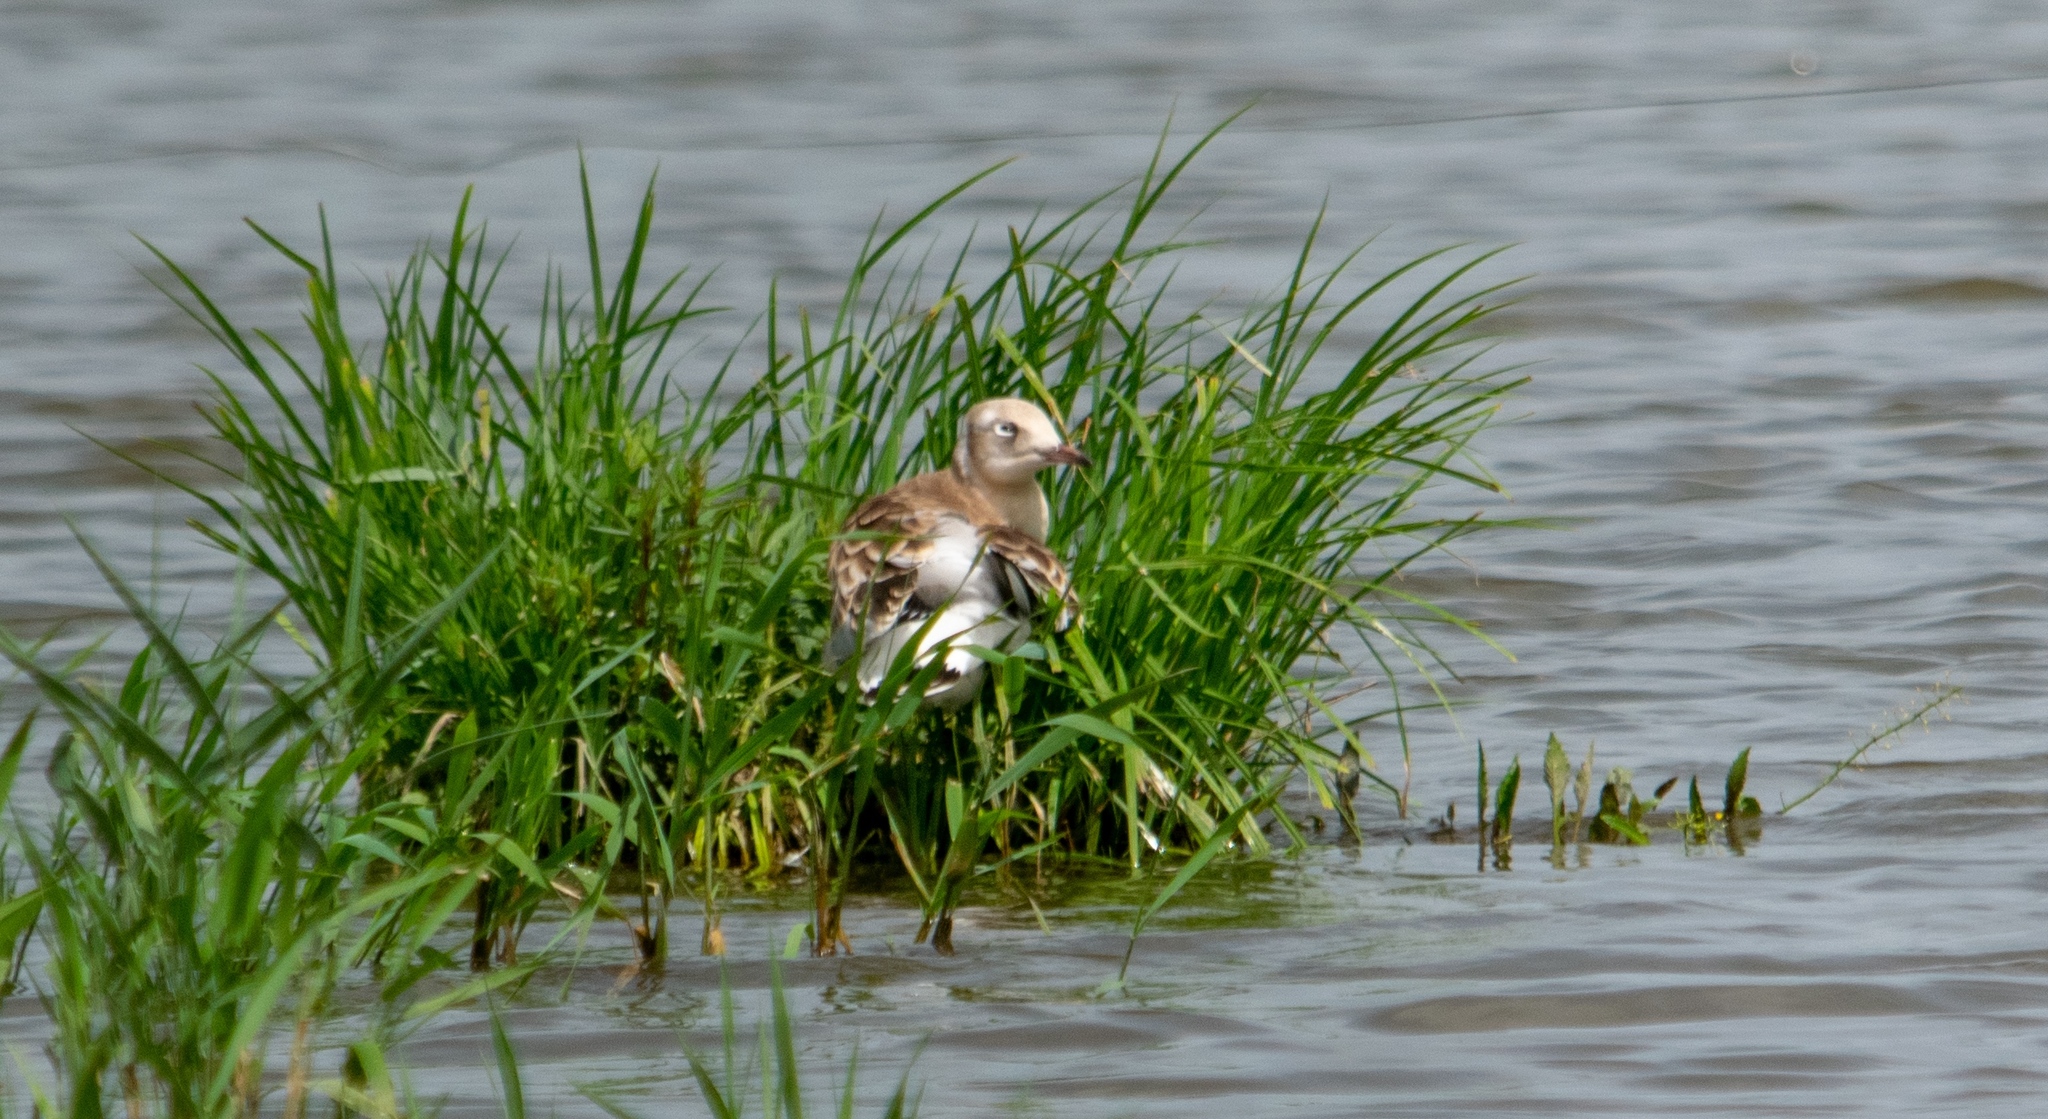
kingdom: Animalia
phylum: Chordata
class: Aves
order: Charadriiformes
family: Laridae
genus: Chroicocephalus
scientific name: Chroicocephalus ridibundus
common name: Black-headed gull
